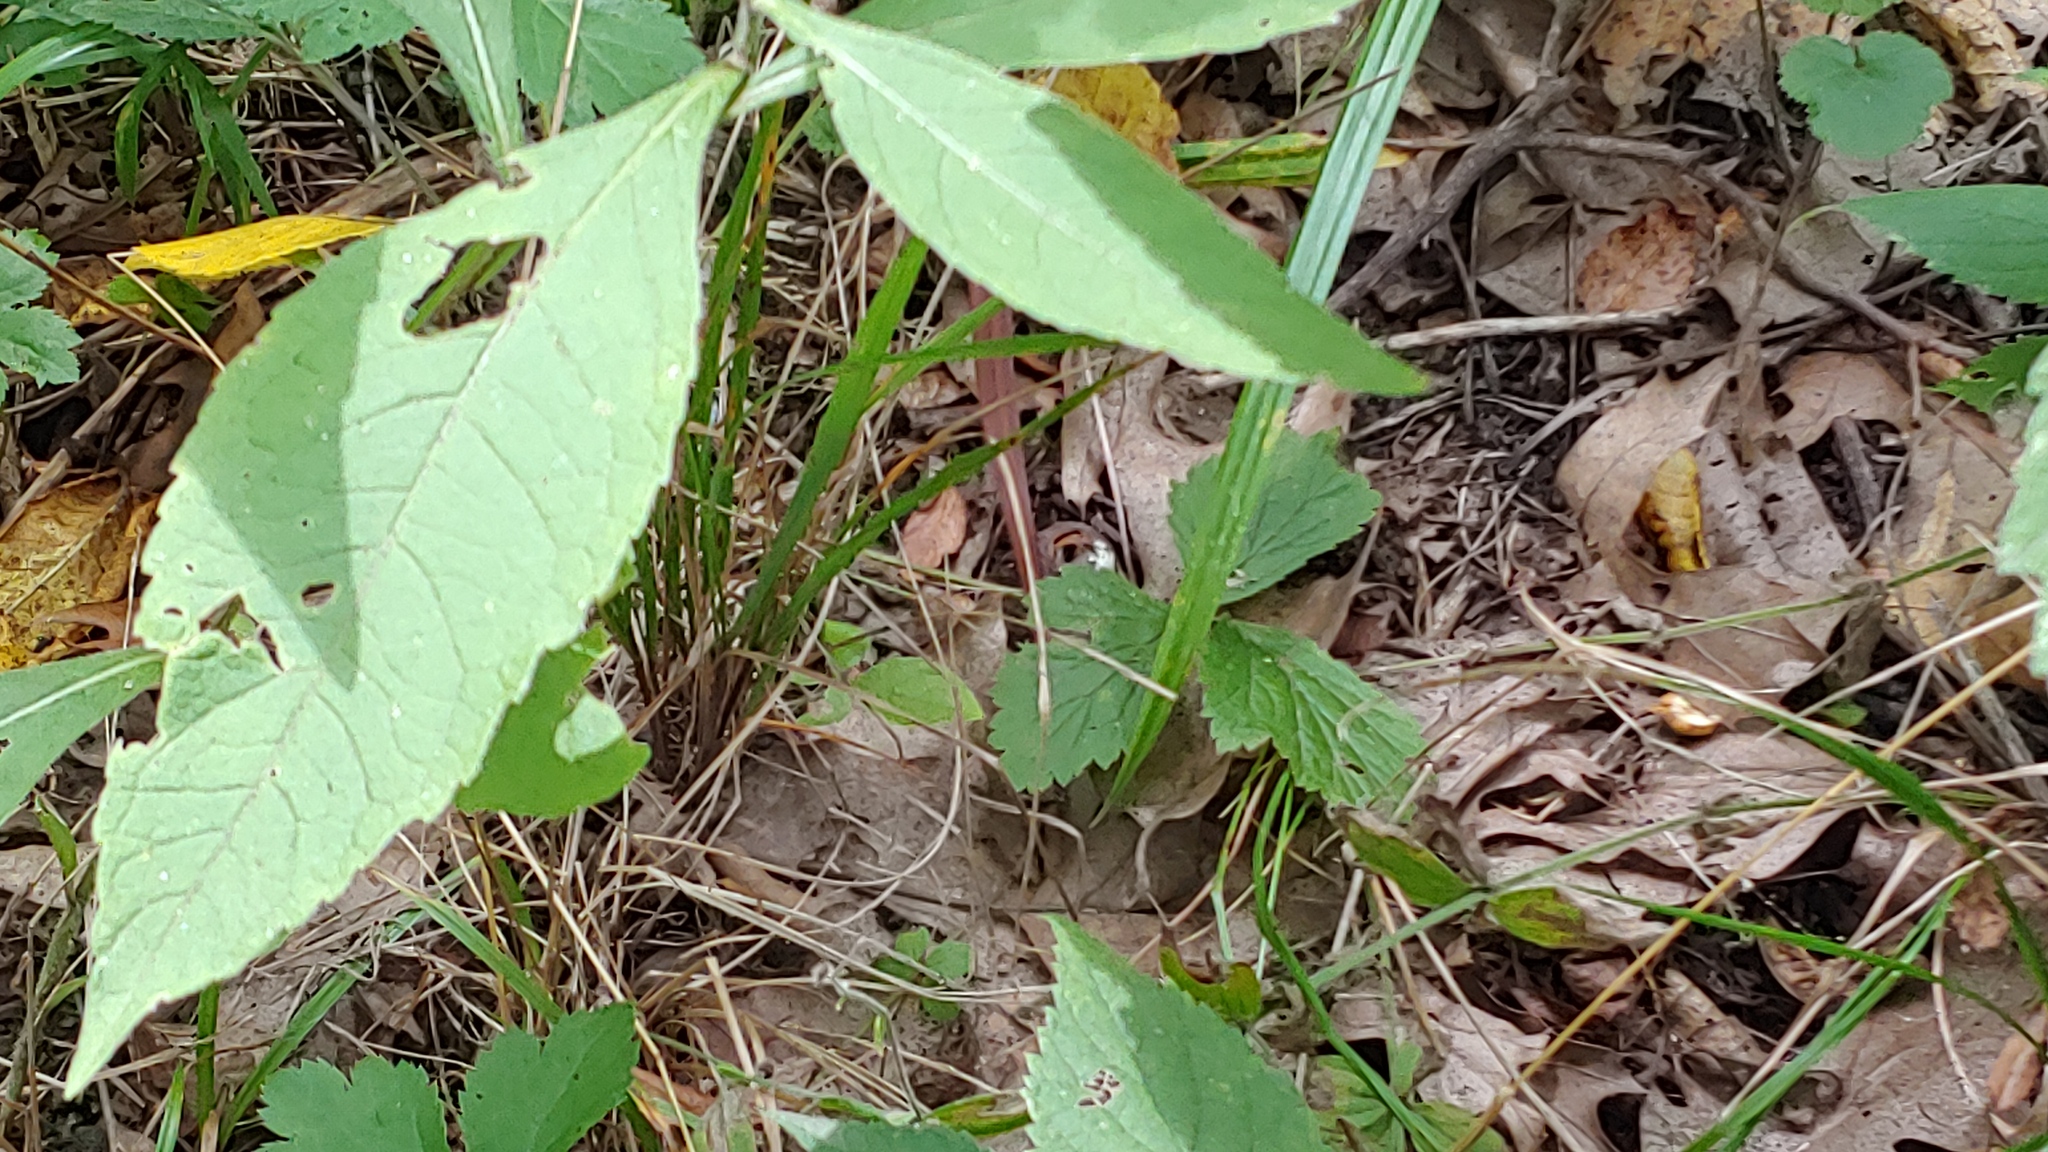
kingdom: Animalia
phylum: Chordata
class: Squamata
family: Colubridae
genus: Storeria
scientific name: Storeria dekayi
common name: (dekay’s) brown snake
